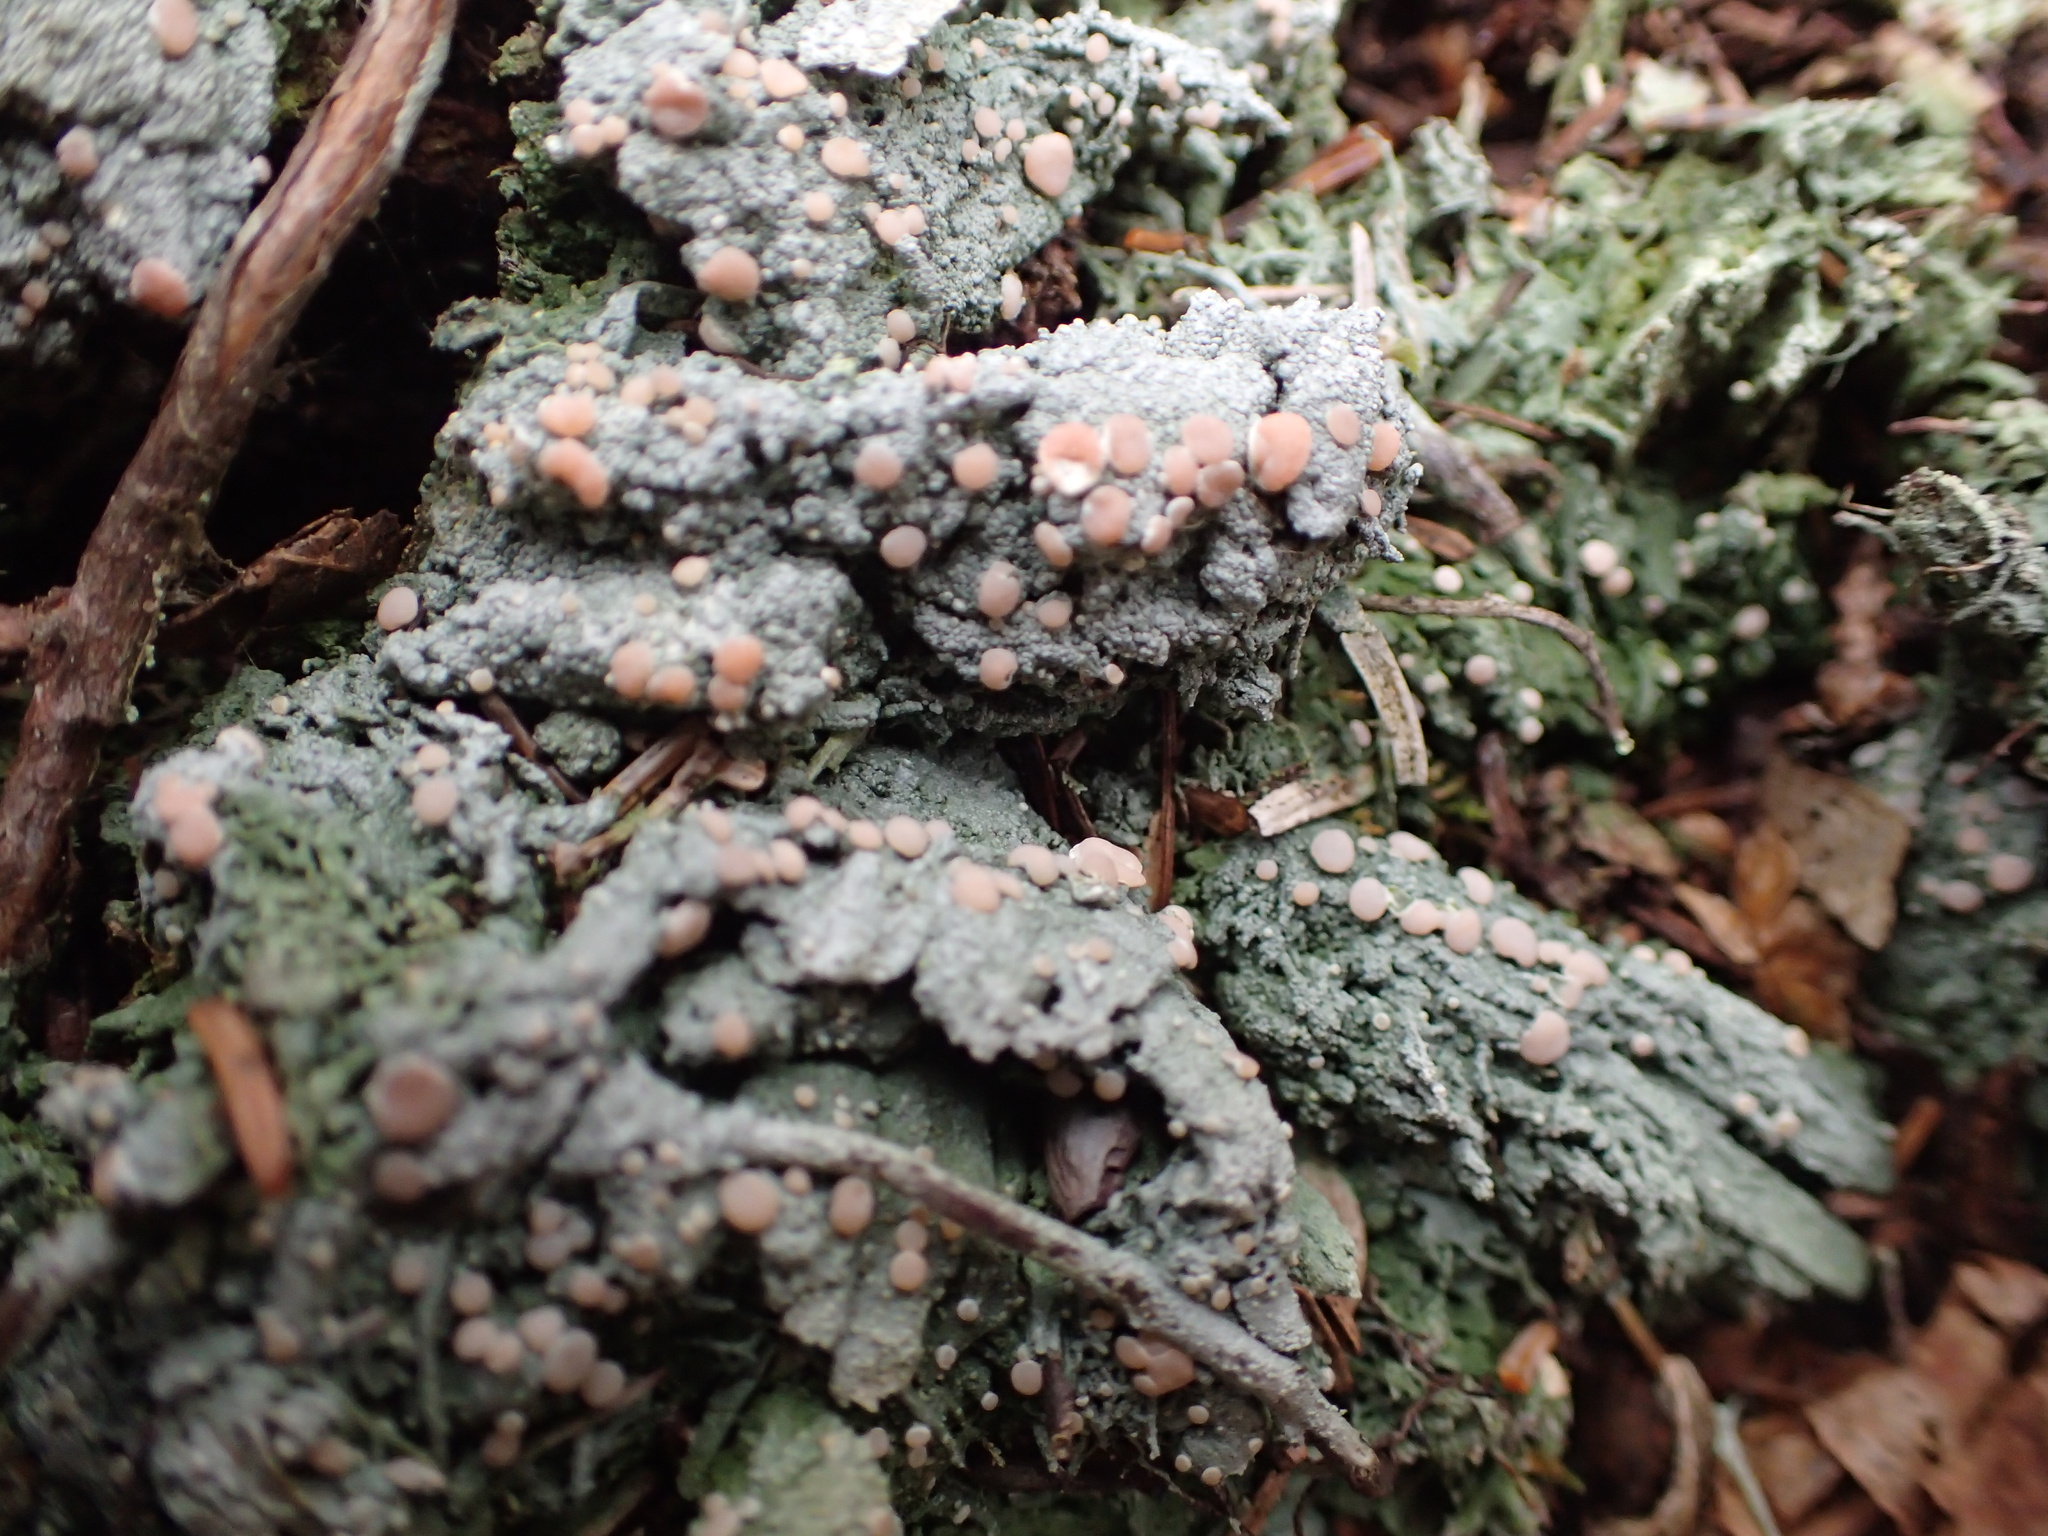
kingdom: Fungi
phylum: Ascomycota
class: Lecanoromycetes
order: Pertusariales
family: Icmadophilaceae
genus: Icmadophila
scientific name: Icmadophila ericetorum
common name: Candy lichen
